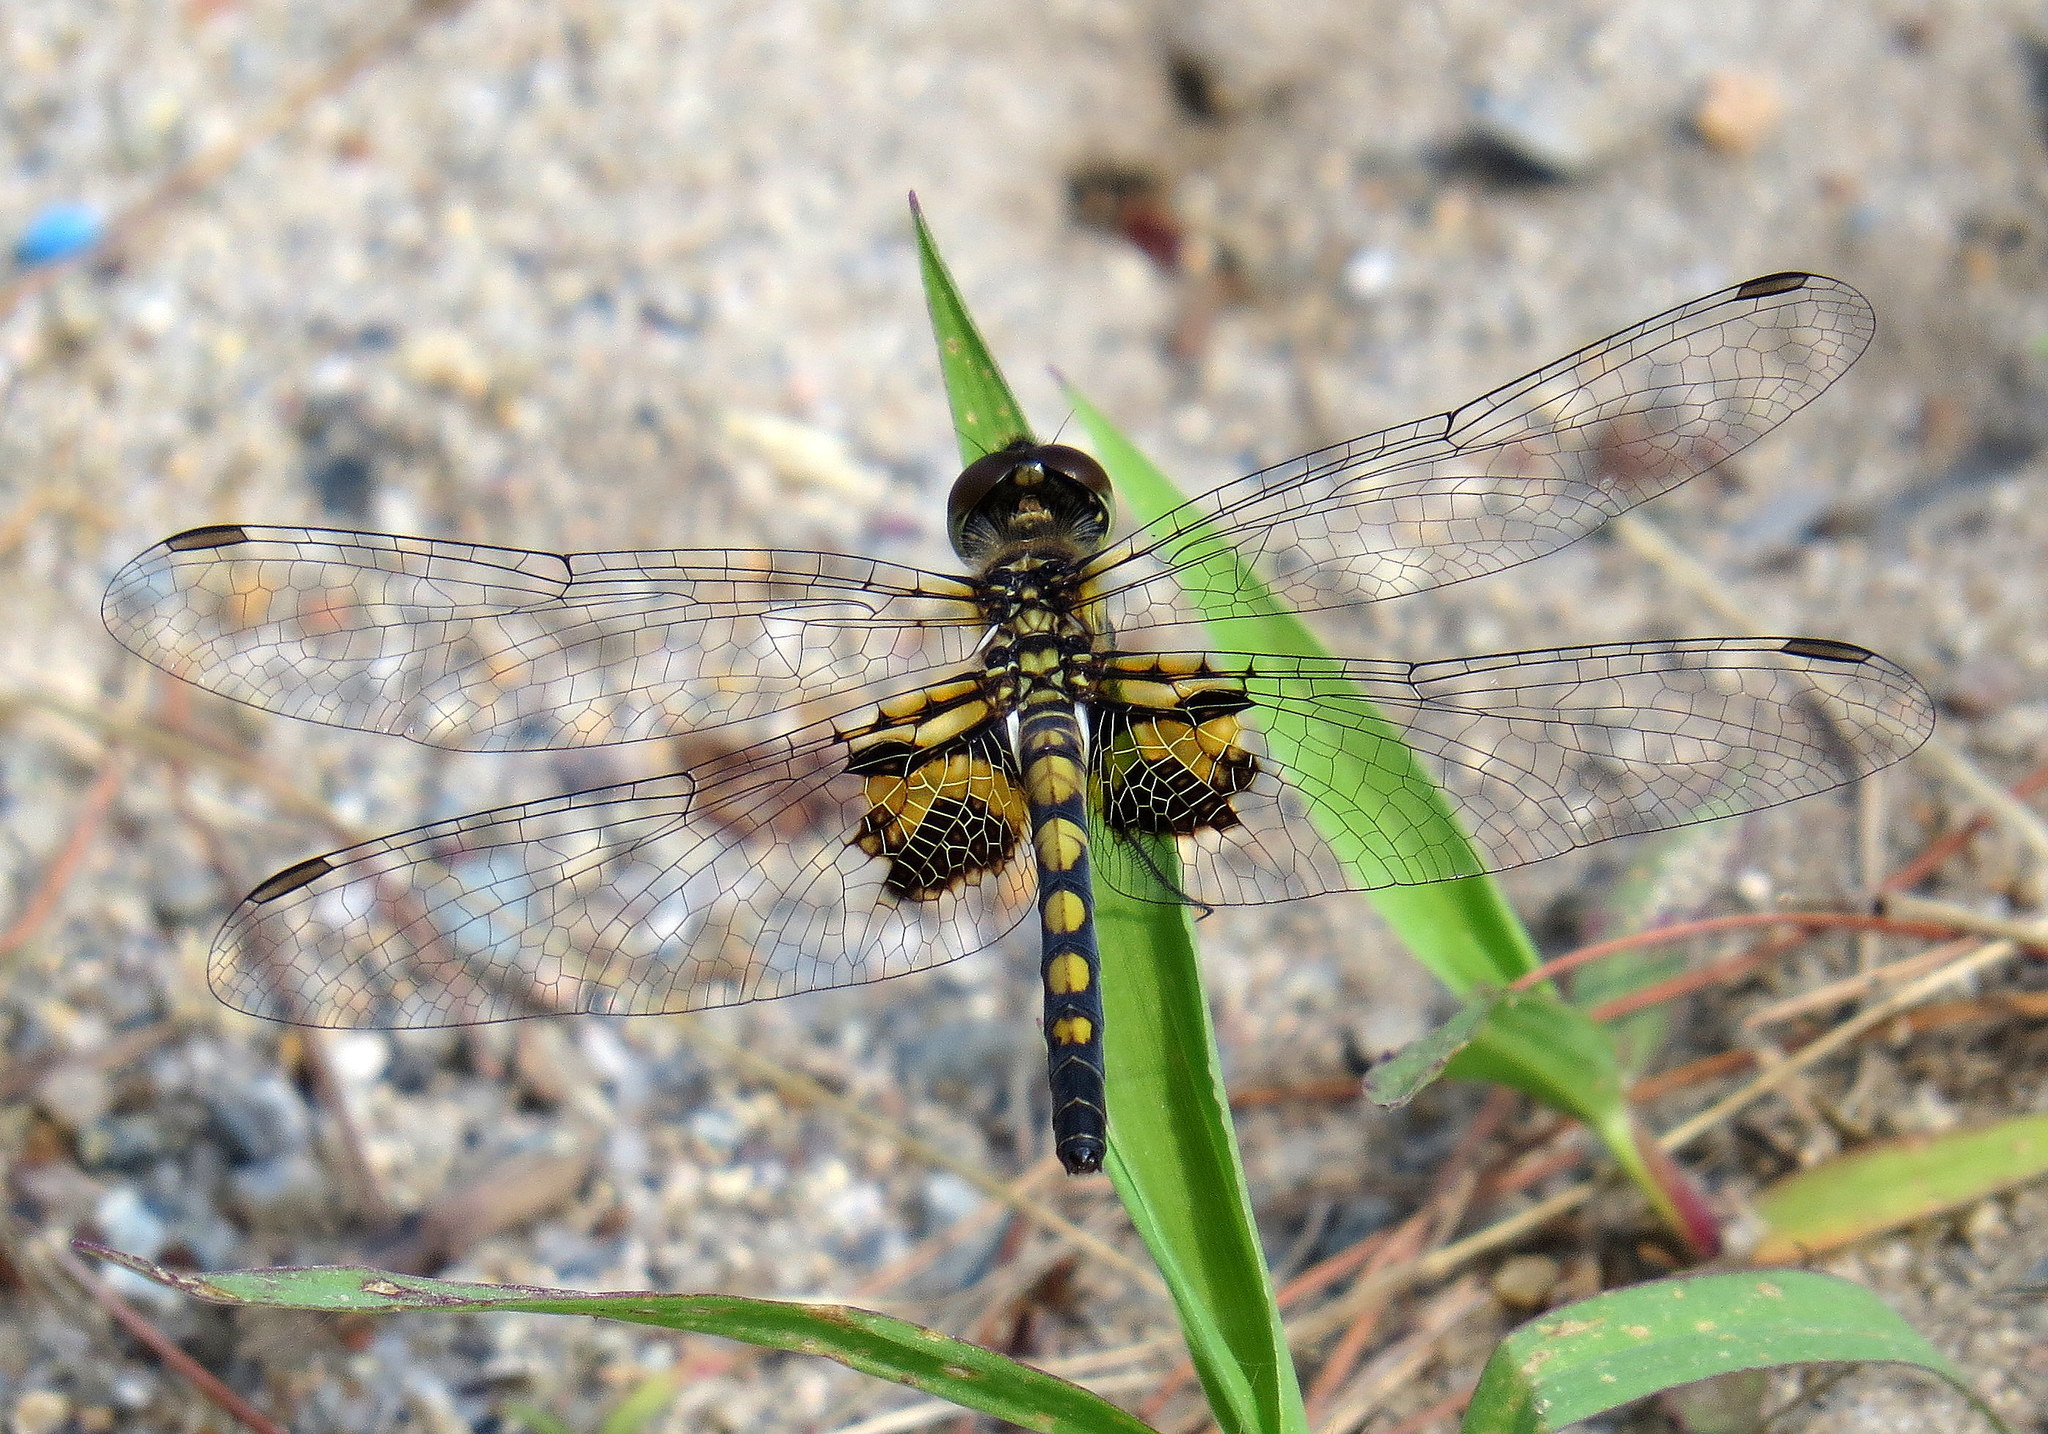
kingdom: Animalia
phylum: Arthropoda
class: Insecta
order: Odonata
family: Libellulidae
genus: Celithemis
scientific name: Celithemis martha
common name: Martha's pennant
